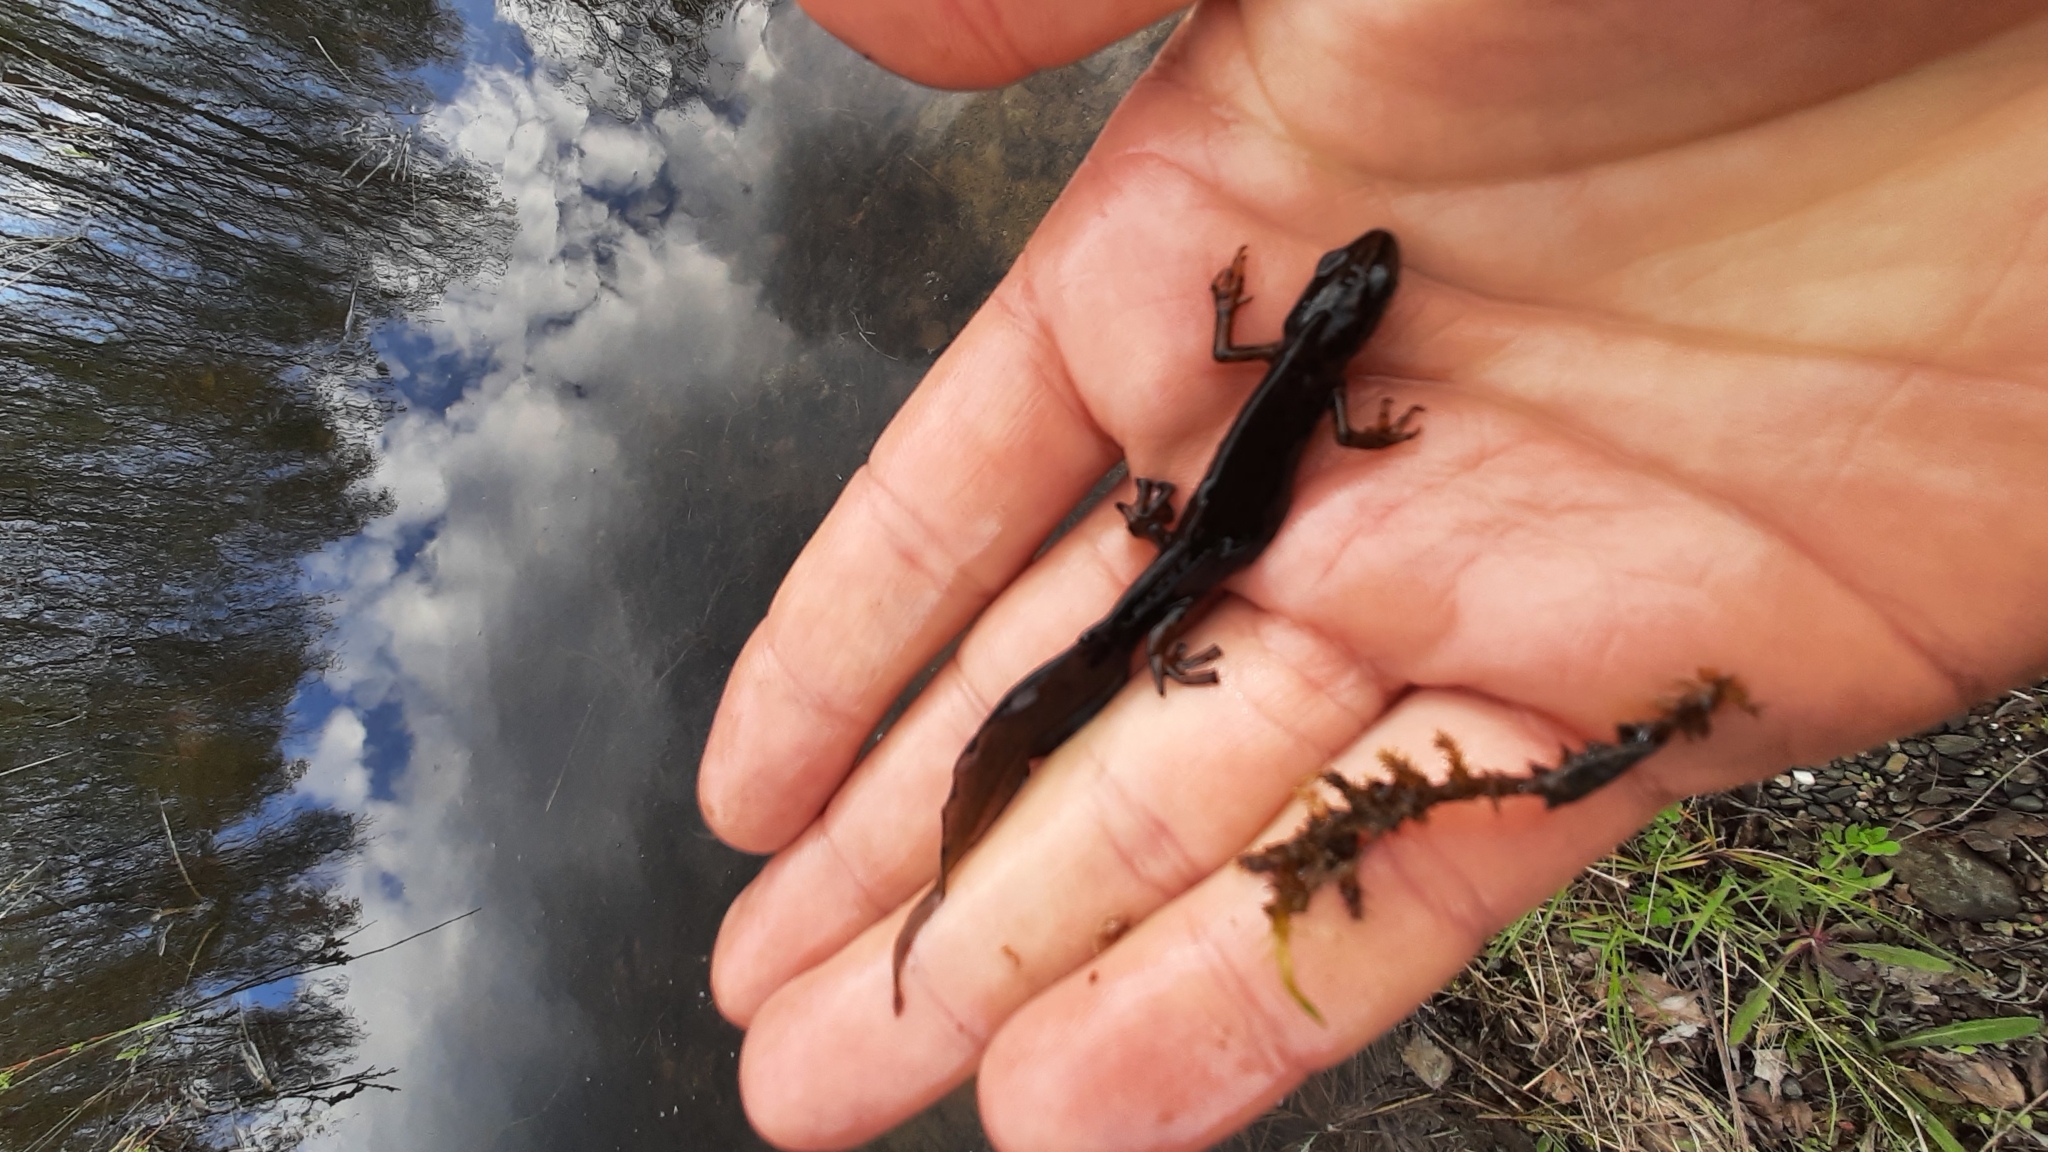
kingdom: Animalia
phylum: Chordata
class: Amphibia
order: Caudata
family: Salamandridae
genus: Lissotriton
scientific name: Lissotriton vulgaris
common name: Smooth newt
